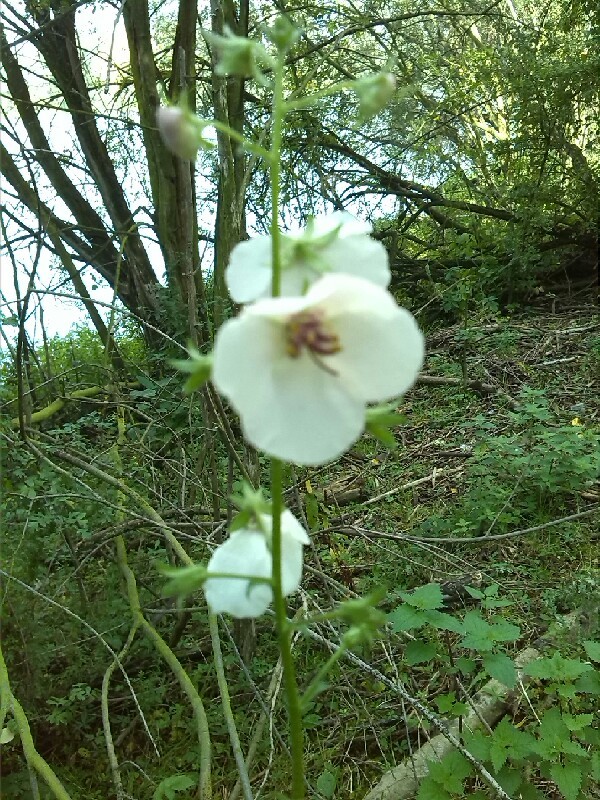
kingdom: Plantae
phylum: Tracheophyta
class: Magnoliopsida
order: Lamiales
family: Scrophulariaceae
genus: Verbascum
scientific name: Verbascum blattaria
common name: Moth mullein
